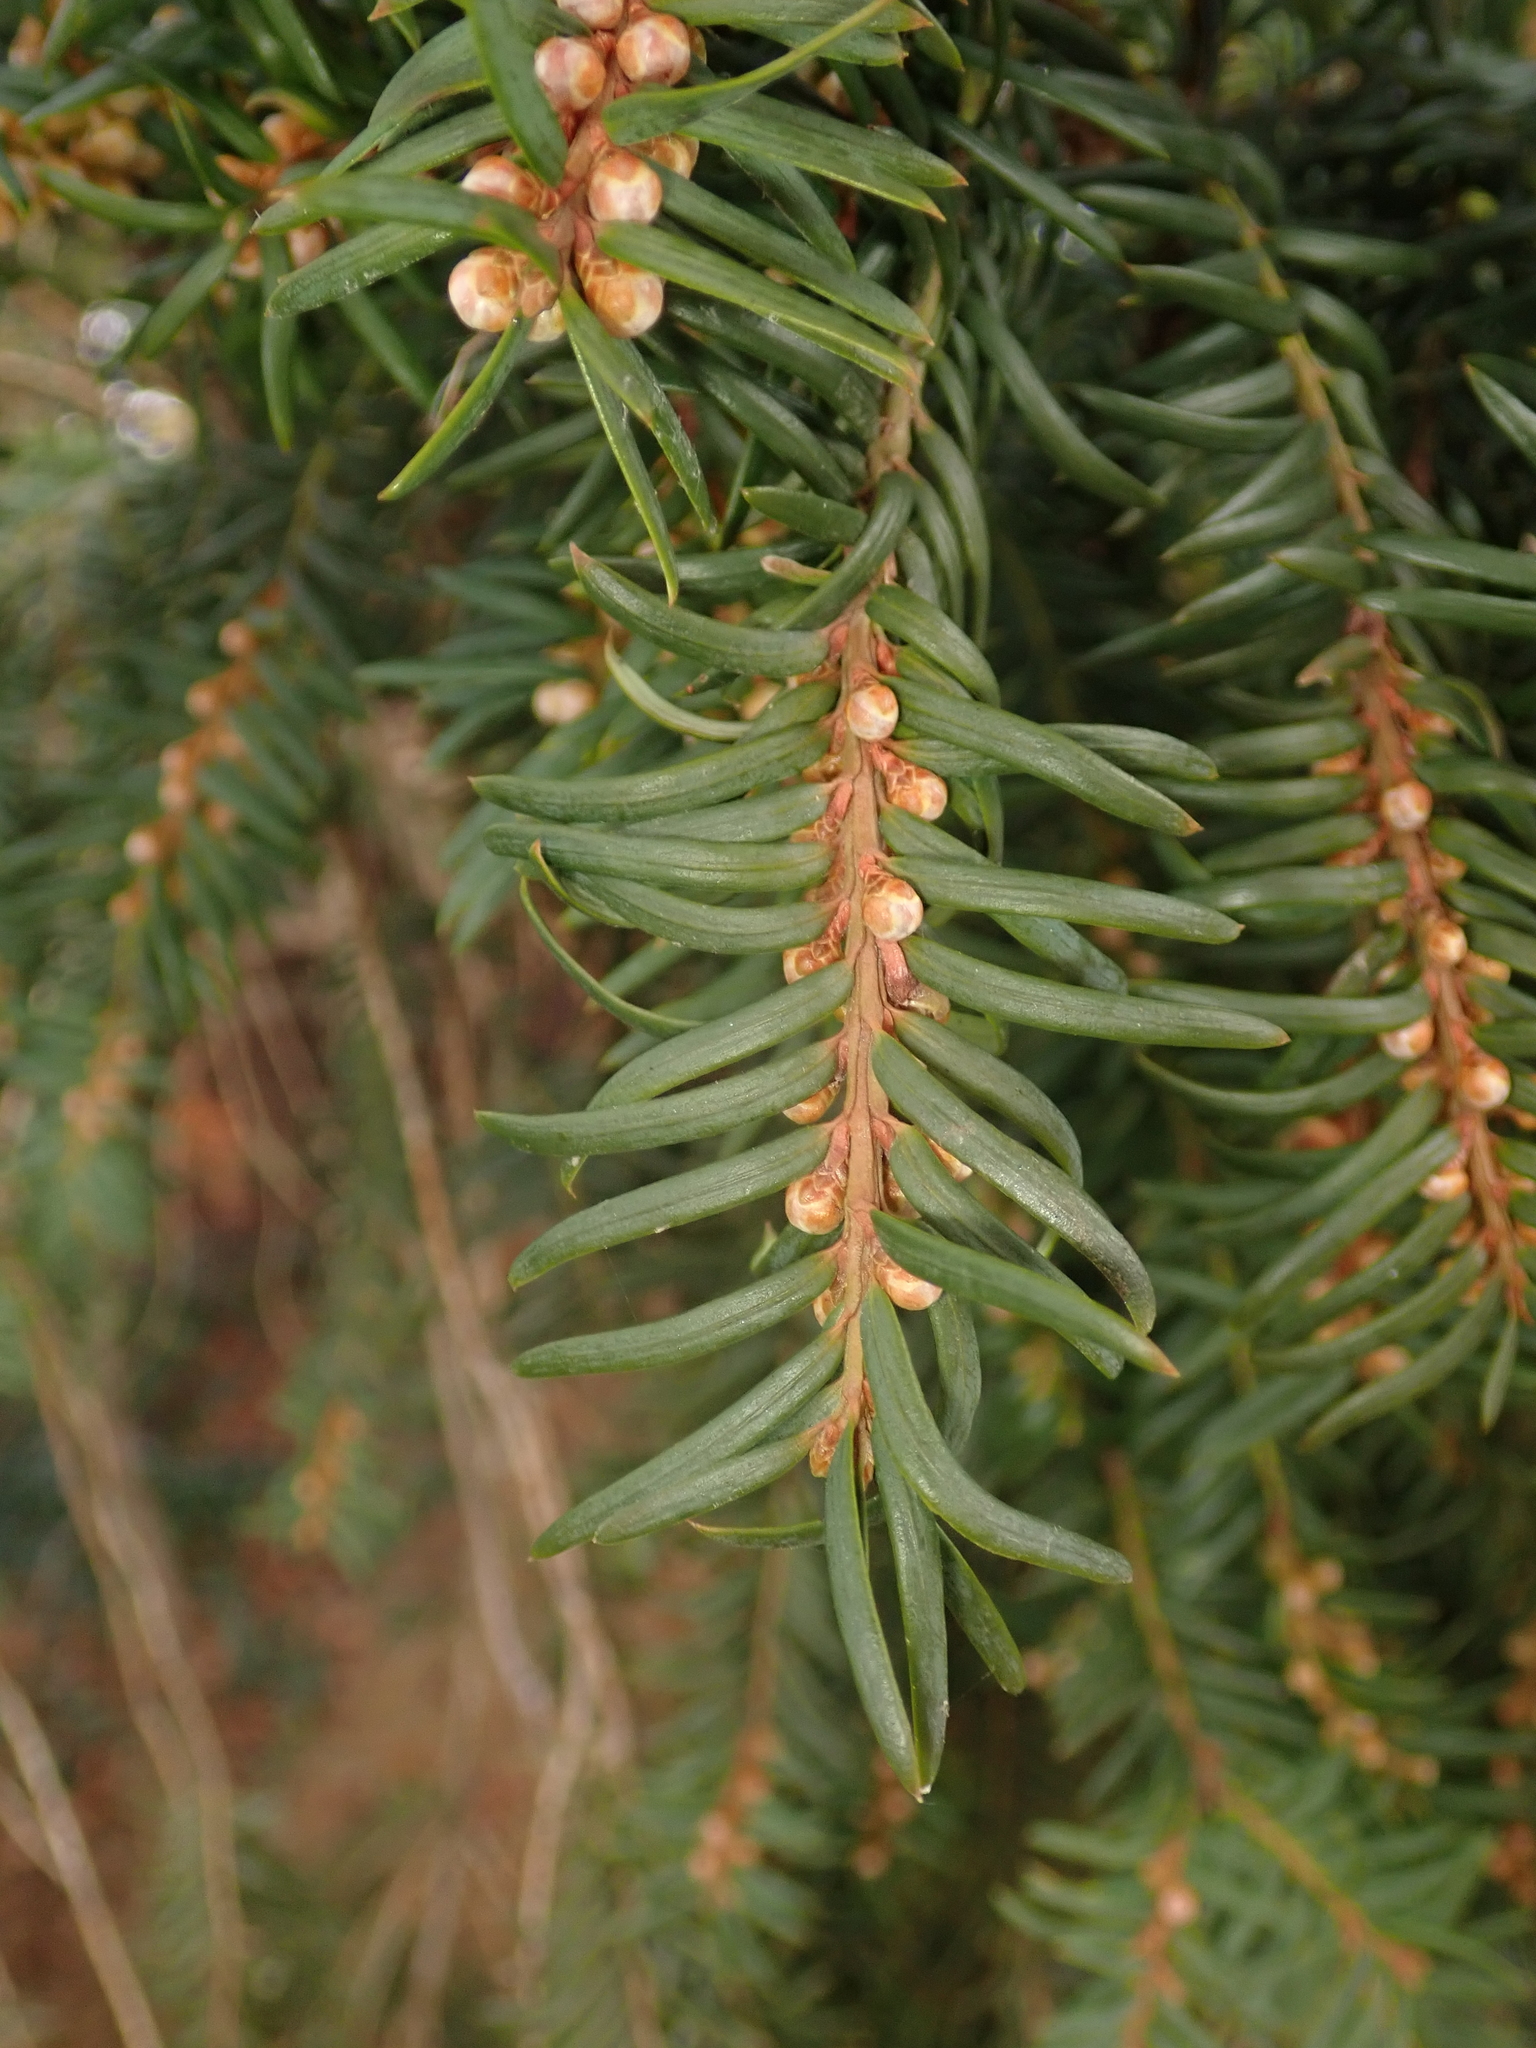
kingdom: Plantae
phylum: Tracheophyta
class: Pinopsida
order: Pinales
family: Taxaceae
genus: Taxus
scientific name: Taxus baccata
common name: Yew
